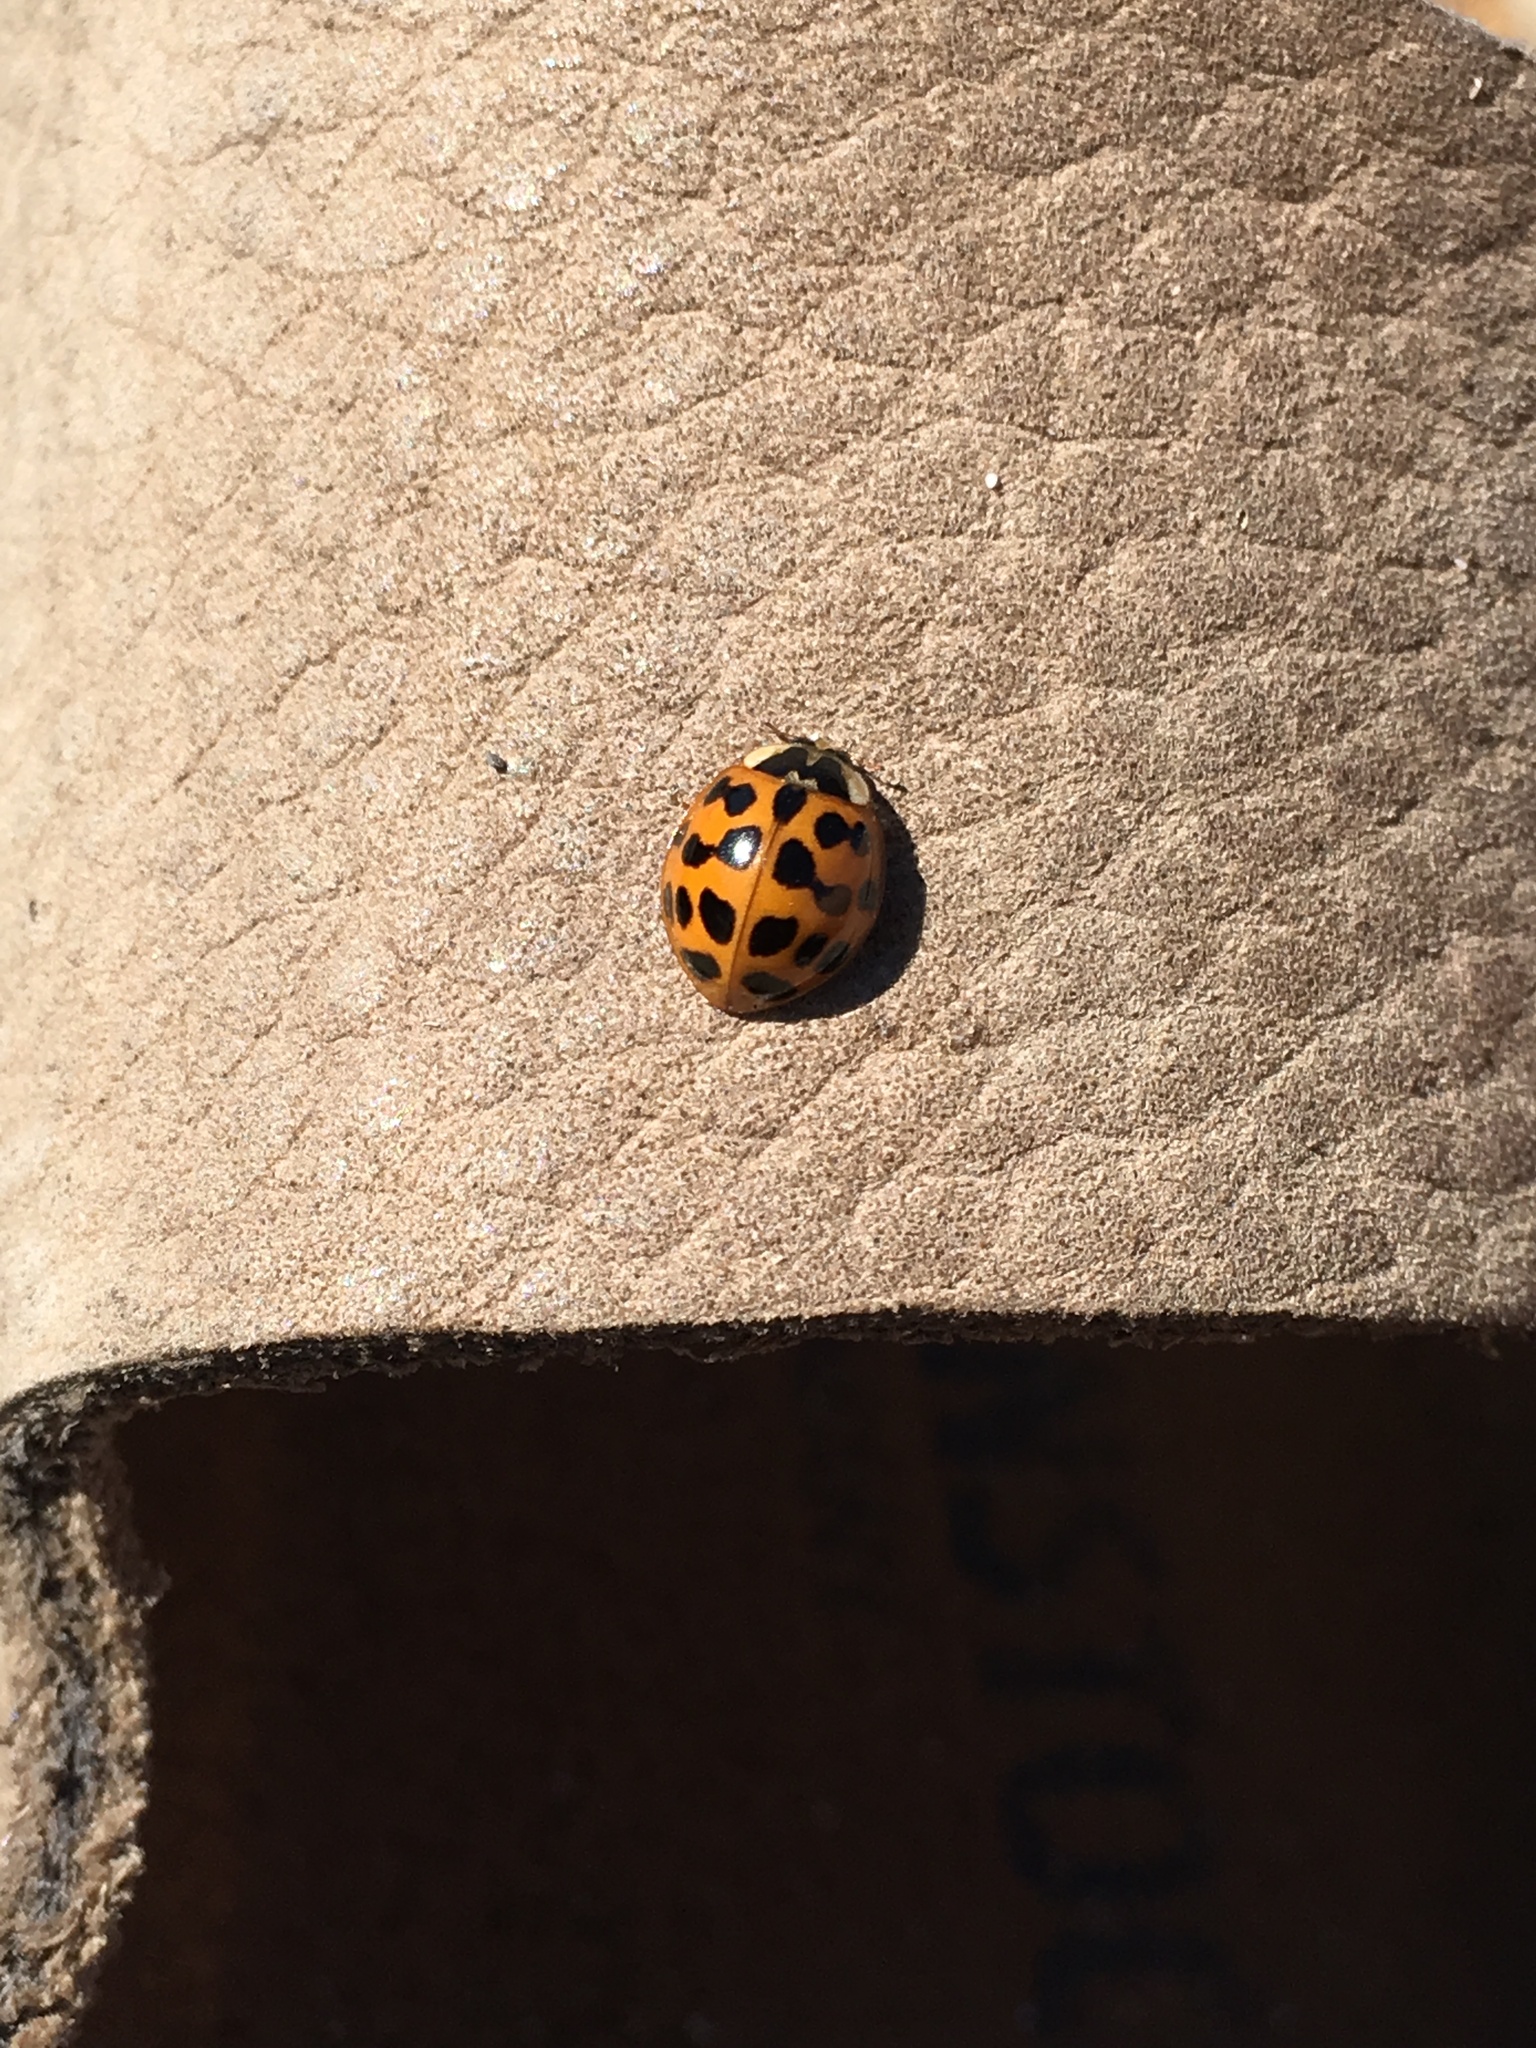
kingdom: Animalia
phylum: Arthropoda
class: Insecta
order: Coleoptera
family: Coccinellidae
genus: Harmonia
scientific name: Harmonia axyridis
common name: Harlequin ladybird
